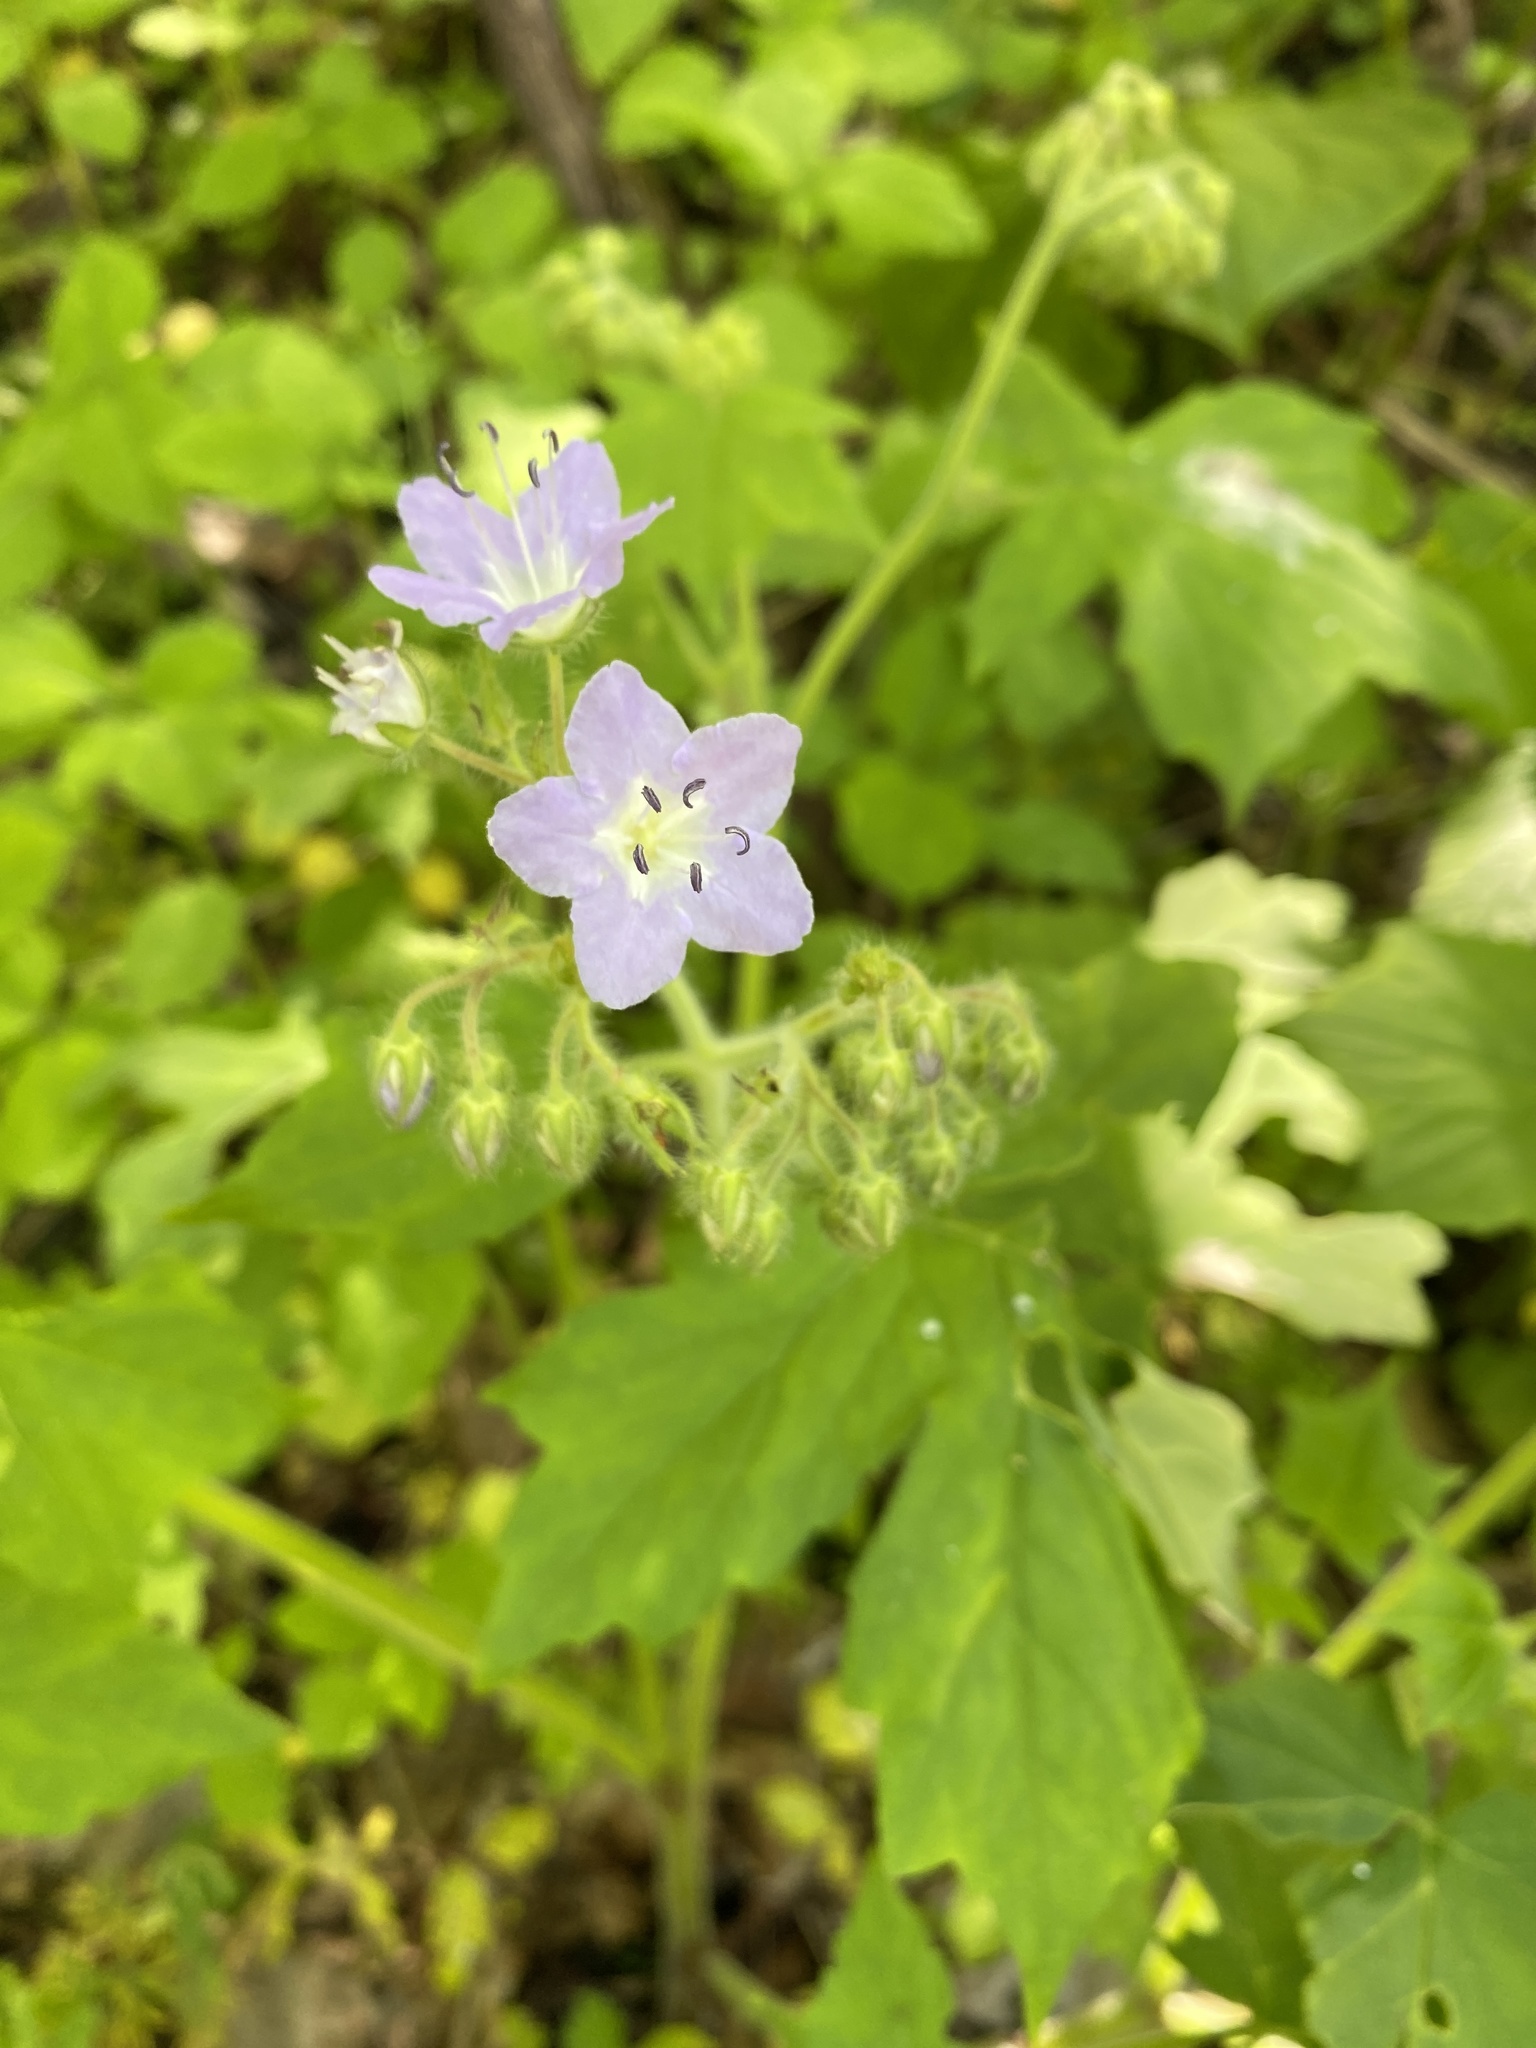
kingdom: Plantae
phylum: Tracheophyta
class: Magnoliopsida
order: Boraginales
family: Hydrophyllaceae
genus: Hydrophyllum
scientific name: Hydrophyllum appendiculatum
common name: Appendaged waterleaf
